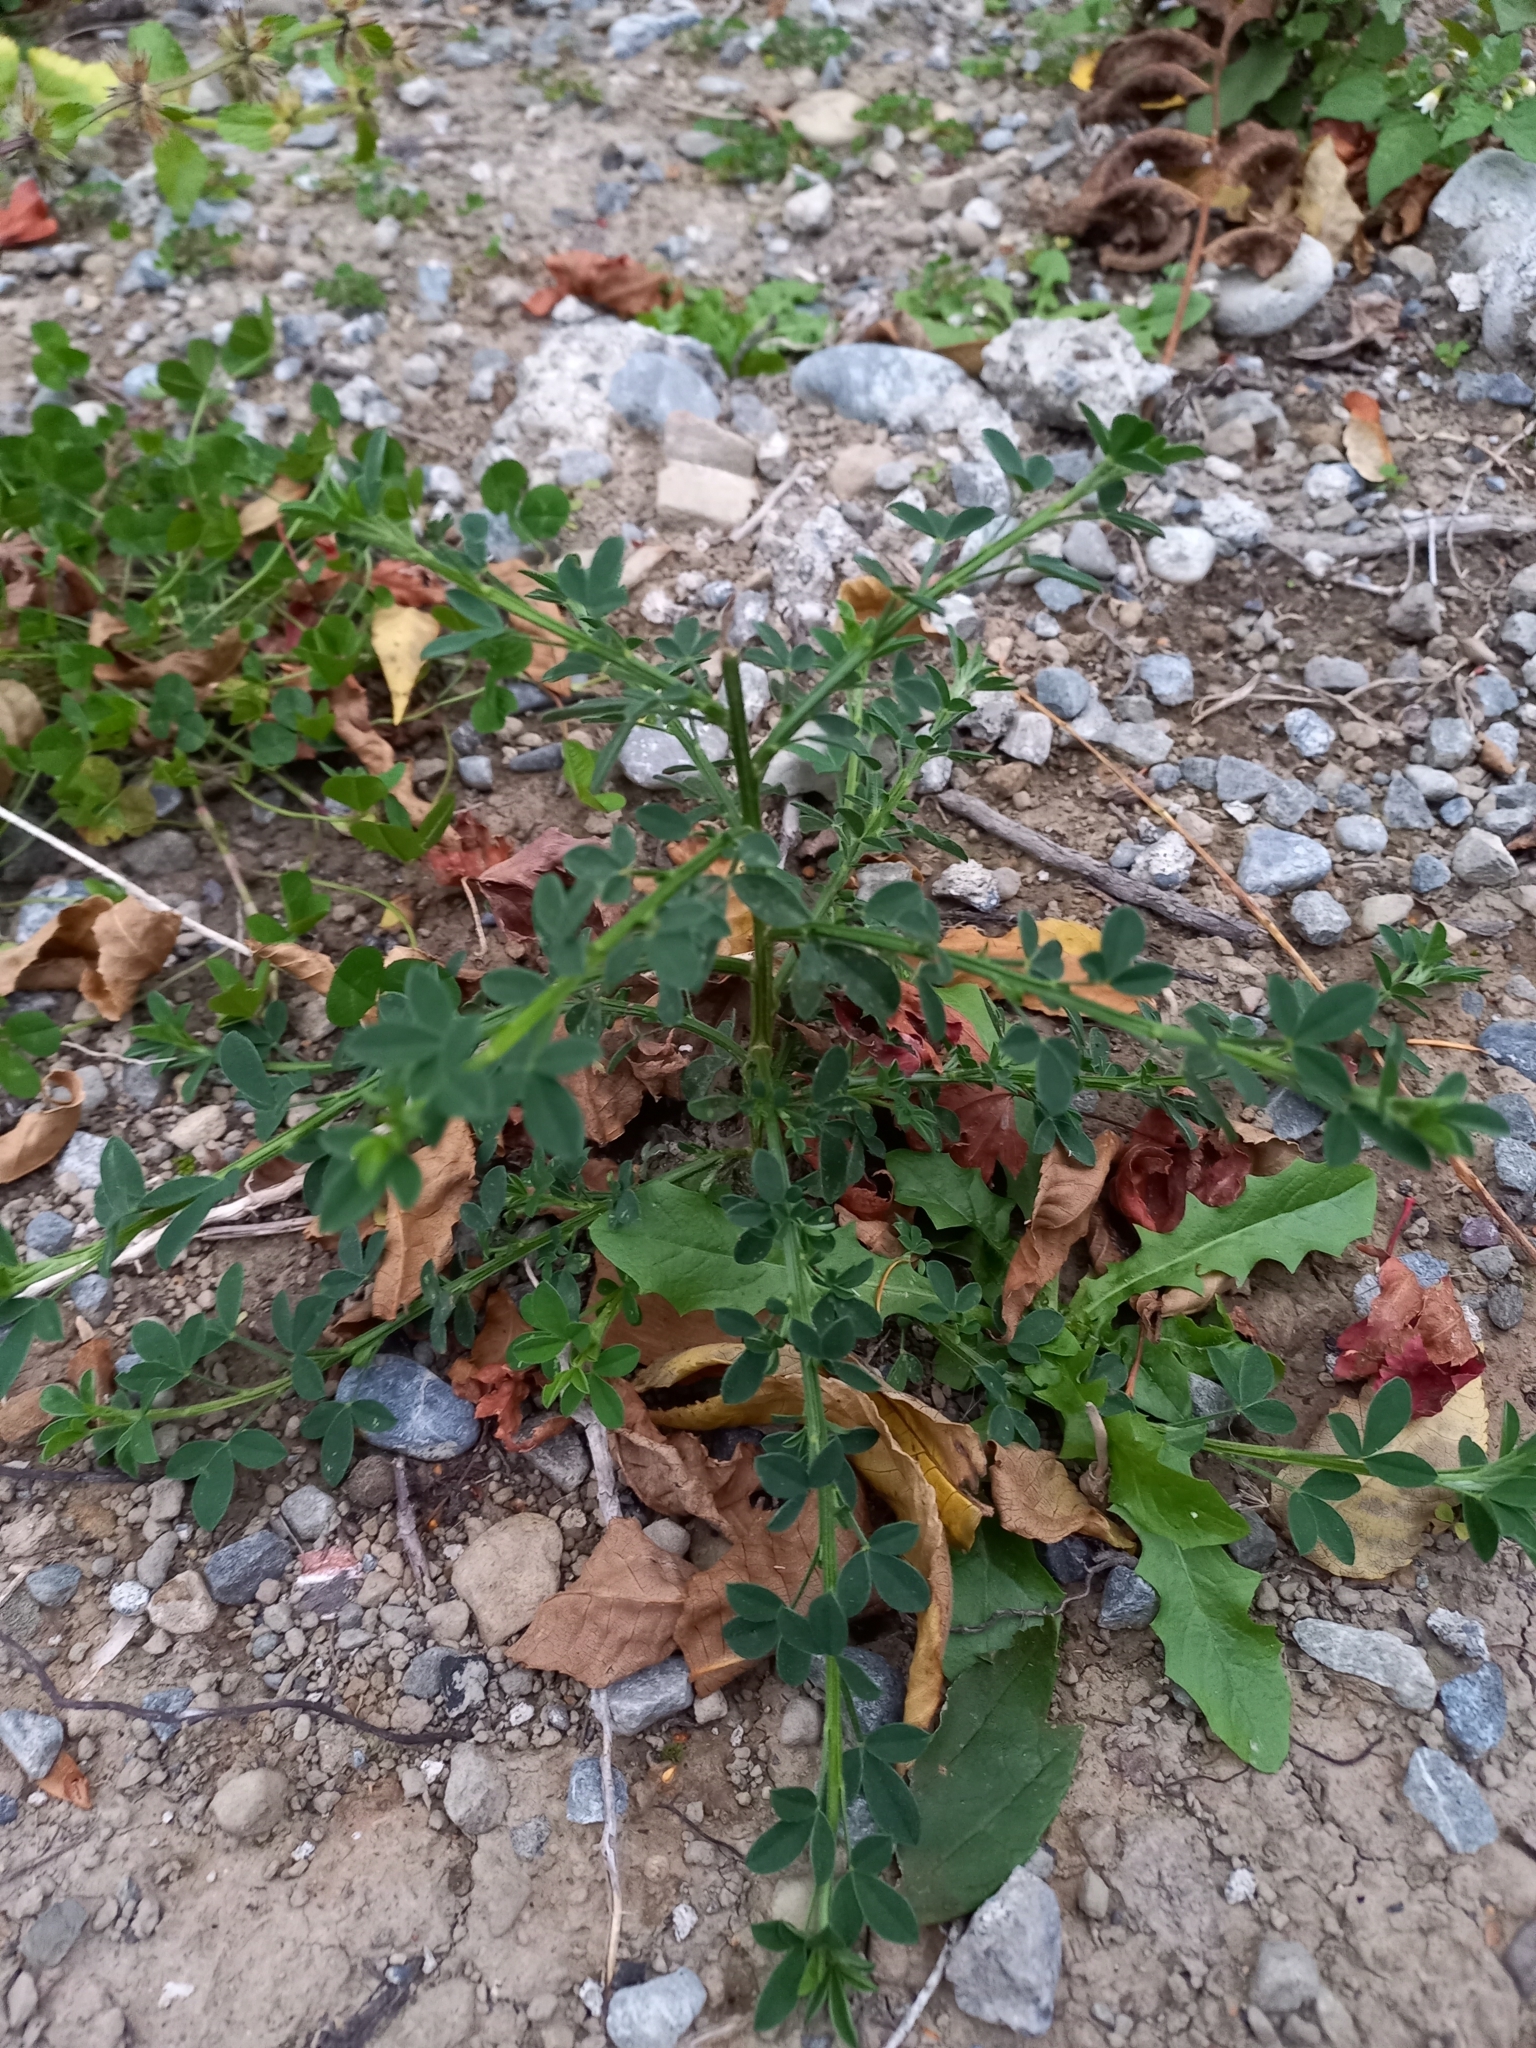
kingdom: Plantae
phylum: Tracheophyta
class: Magnoliopsida
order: Fabales
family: Fabaceae
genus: Cytisus
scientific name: Cytisus scoparius
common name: Scotch broom
